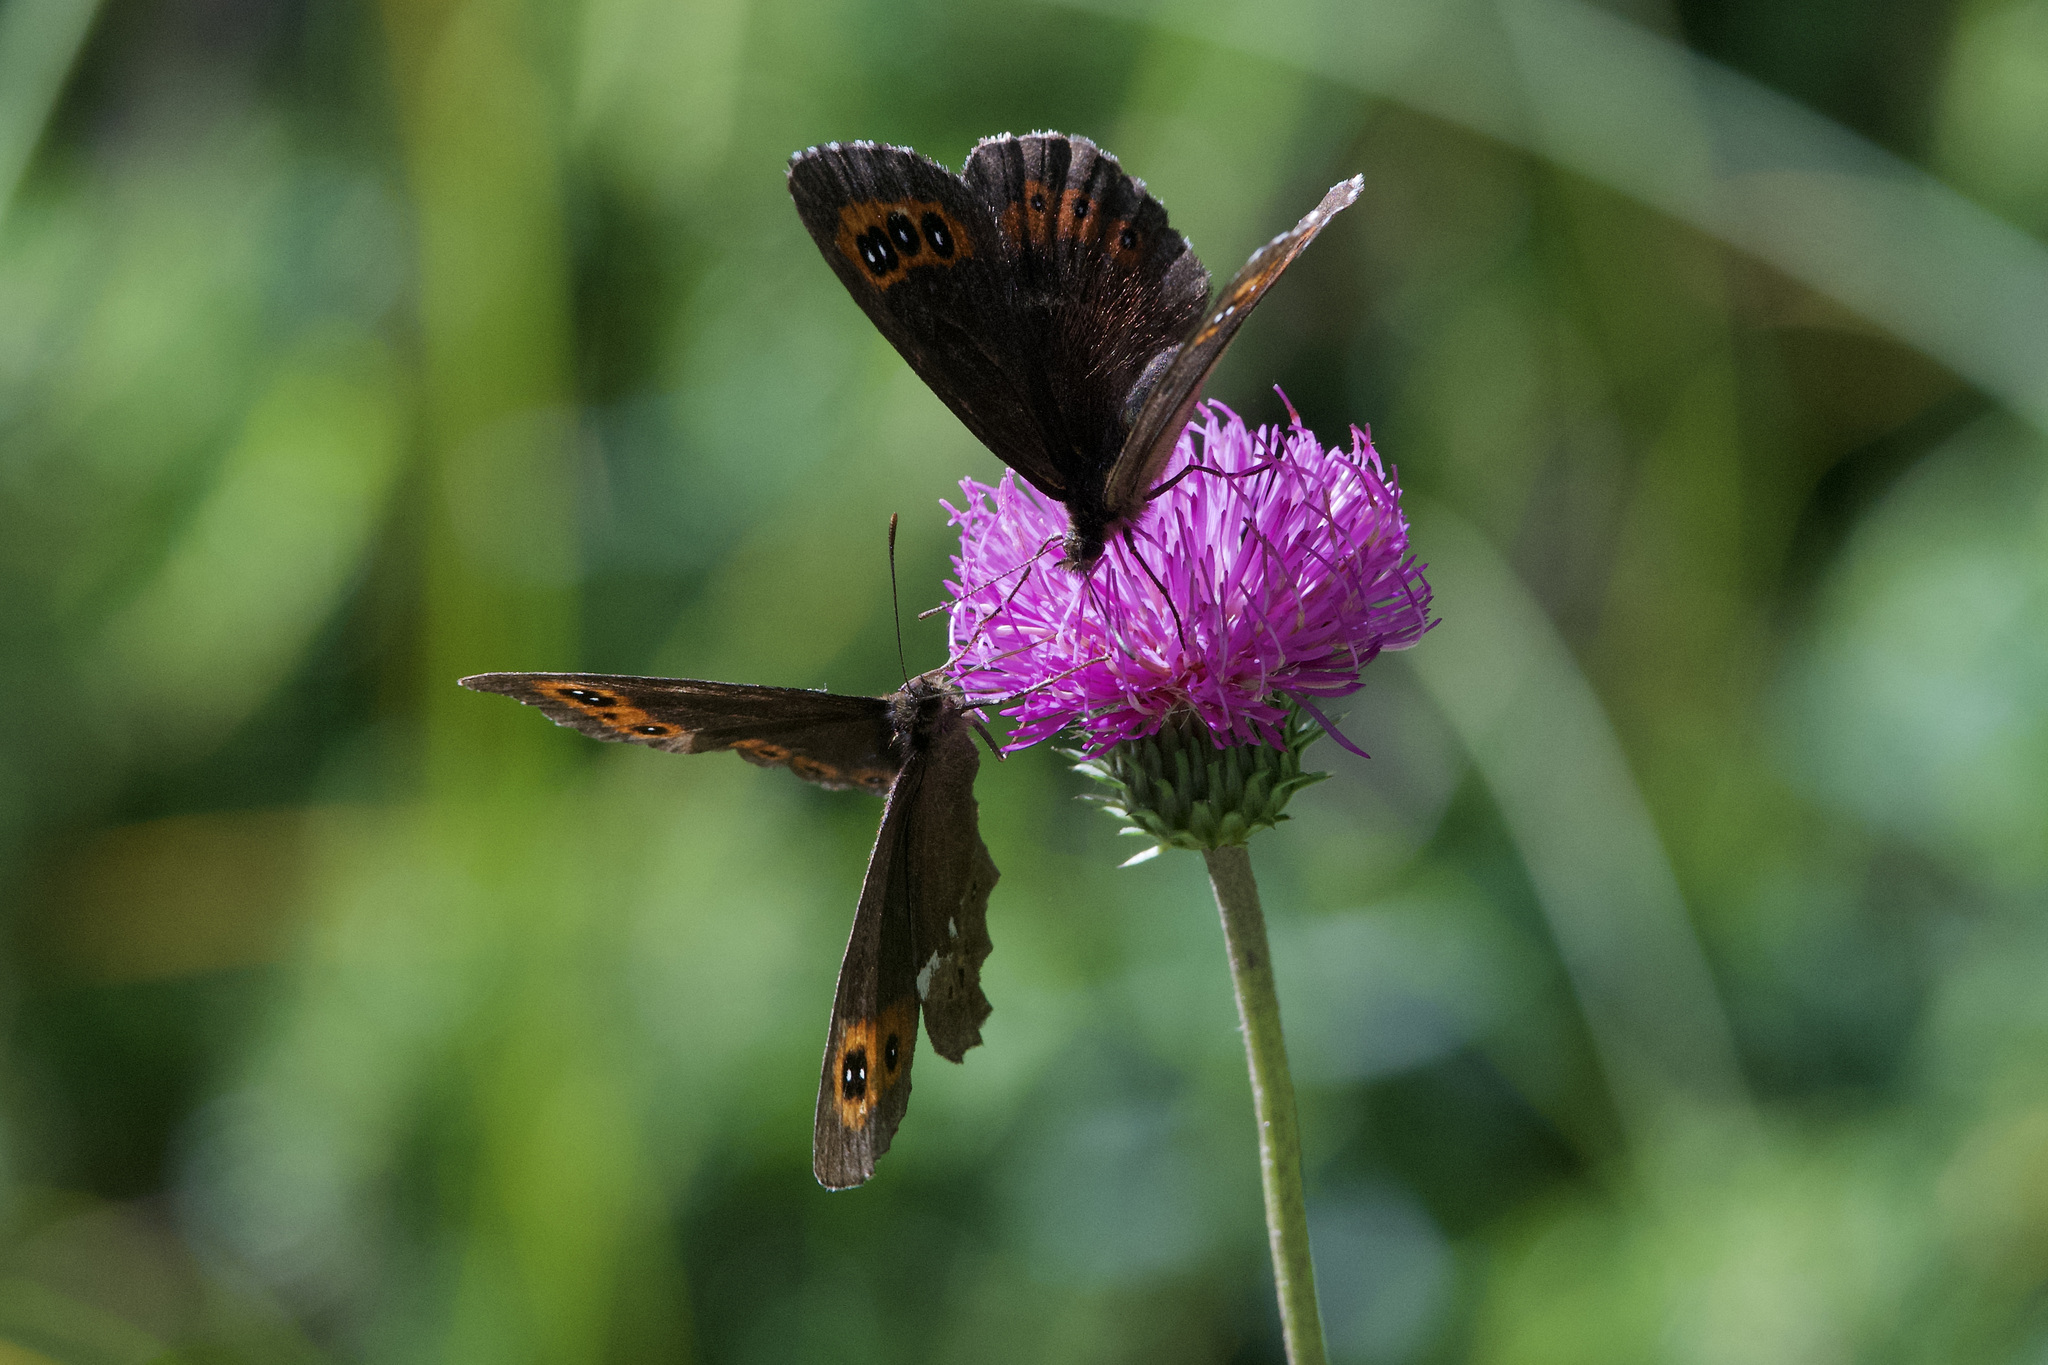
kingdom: Animalia
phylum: Arthropoda
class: Insecta
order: Lepidoptera
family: Nymphalidae
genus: Erebia
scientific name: Erebia ligea
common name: Arran brown
